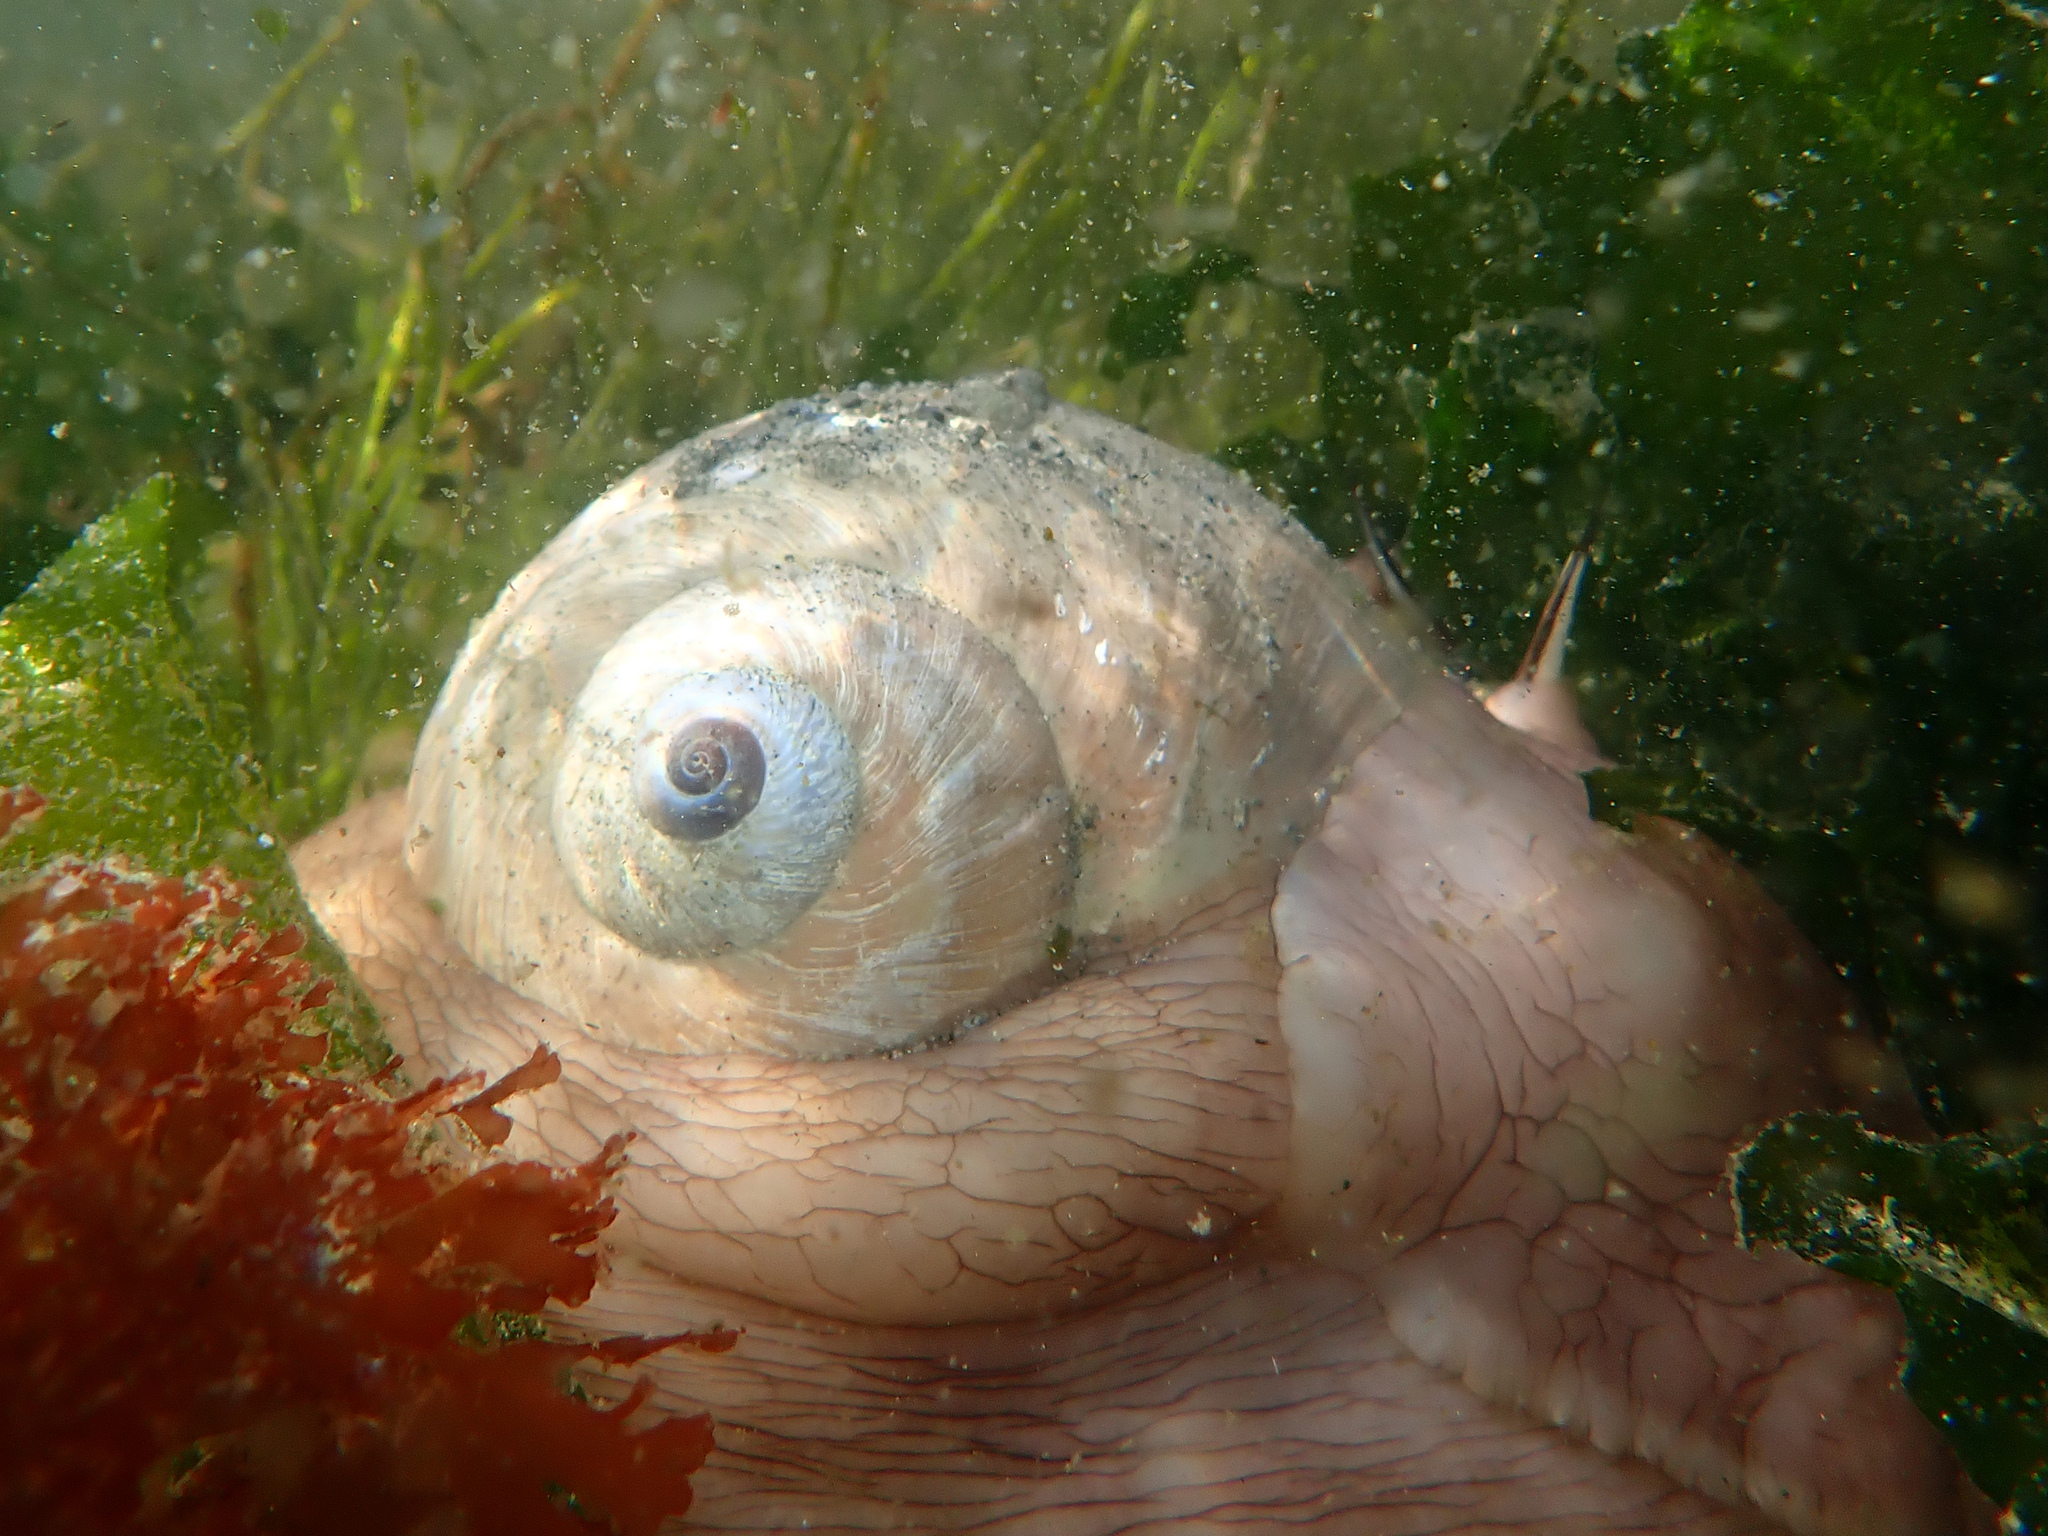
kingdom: Animalia
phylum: Mollusca
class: Gastropoda
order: Littorinimorpha
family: Naticidae
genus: Neverita
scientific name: Neverita lewisii
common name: Lewis' moonsnail
